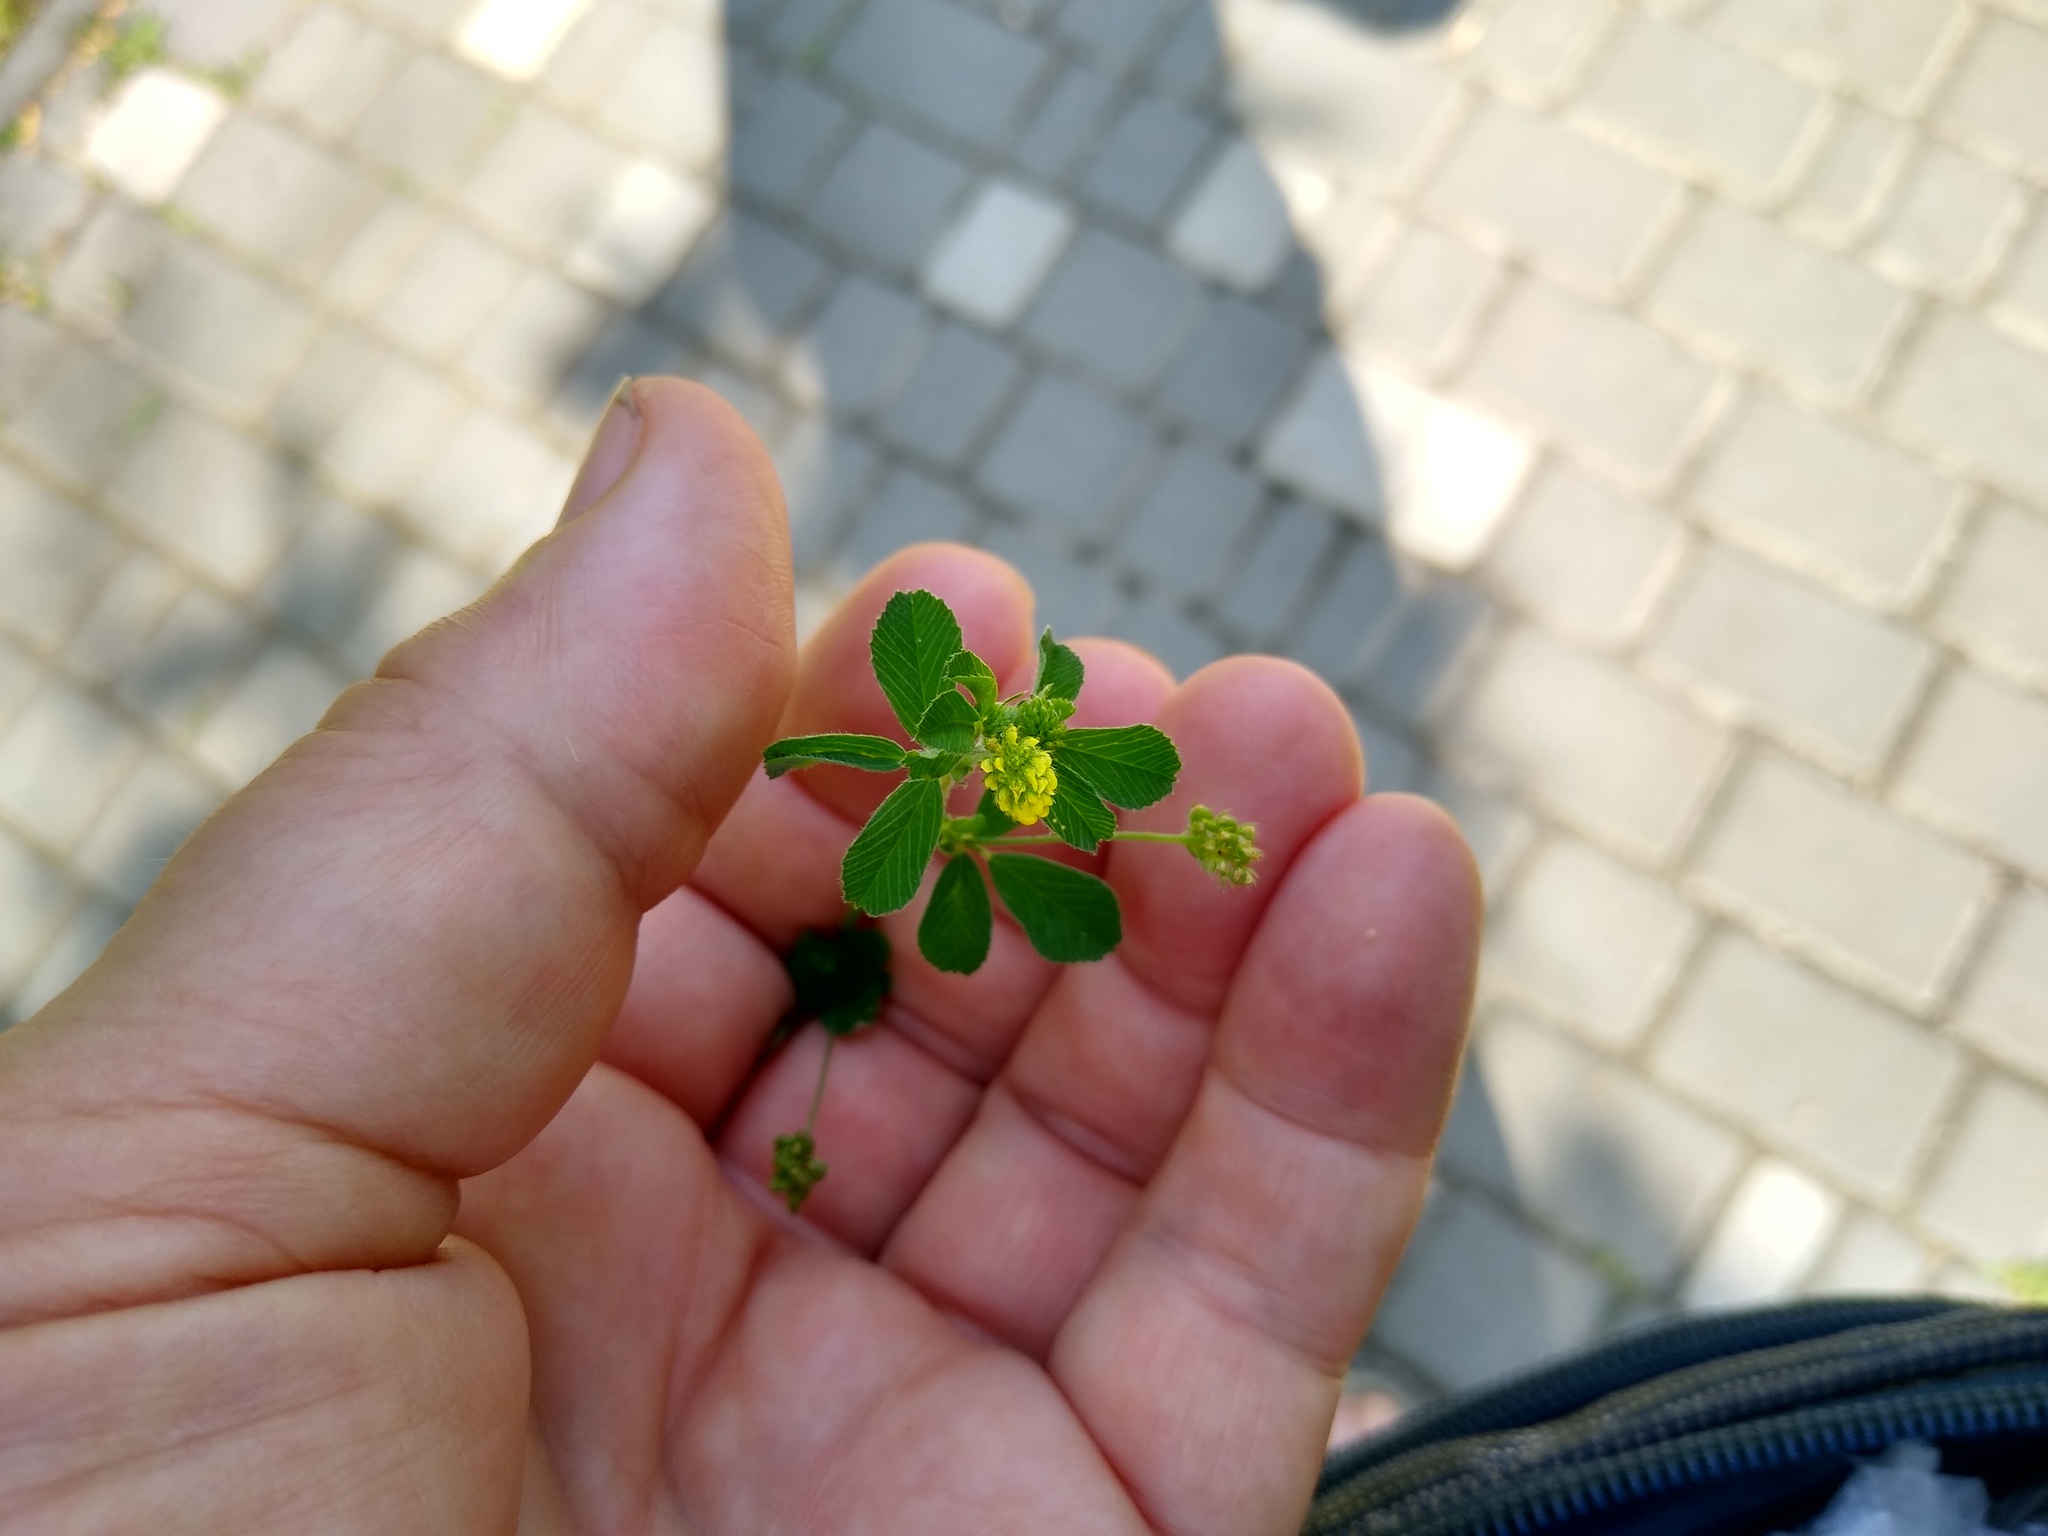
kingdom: Plantae
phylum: Tracheophyta
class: Magnoliopsida
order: Fabales
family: Fabaceae
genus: Medicago
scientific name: Medicago lupulina
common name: Black medick
